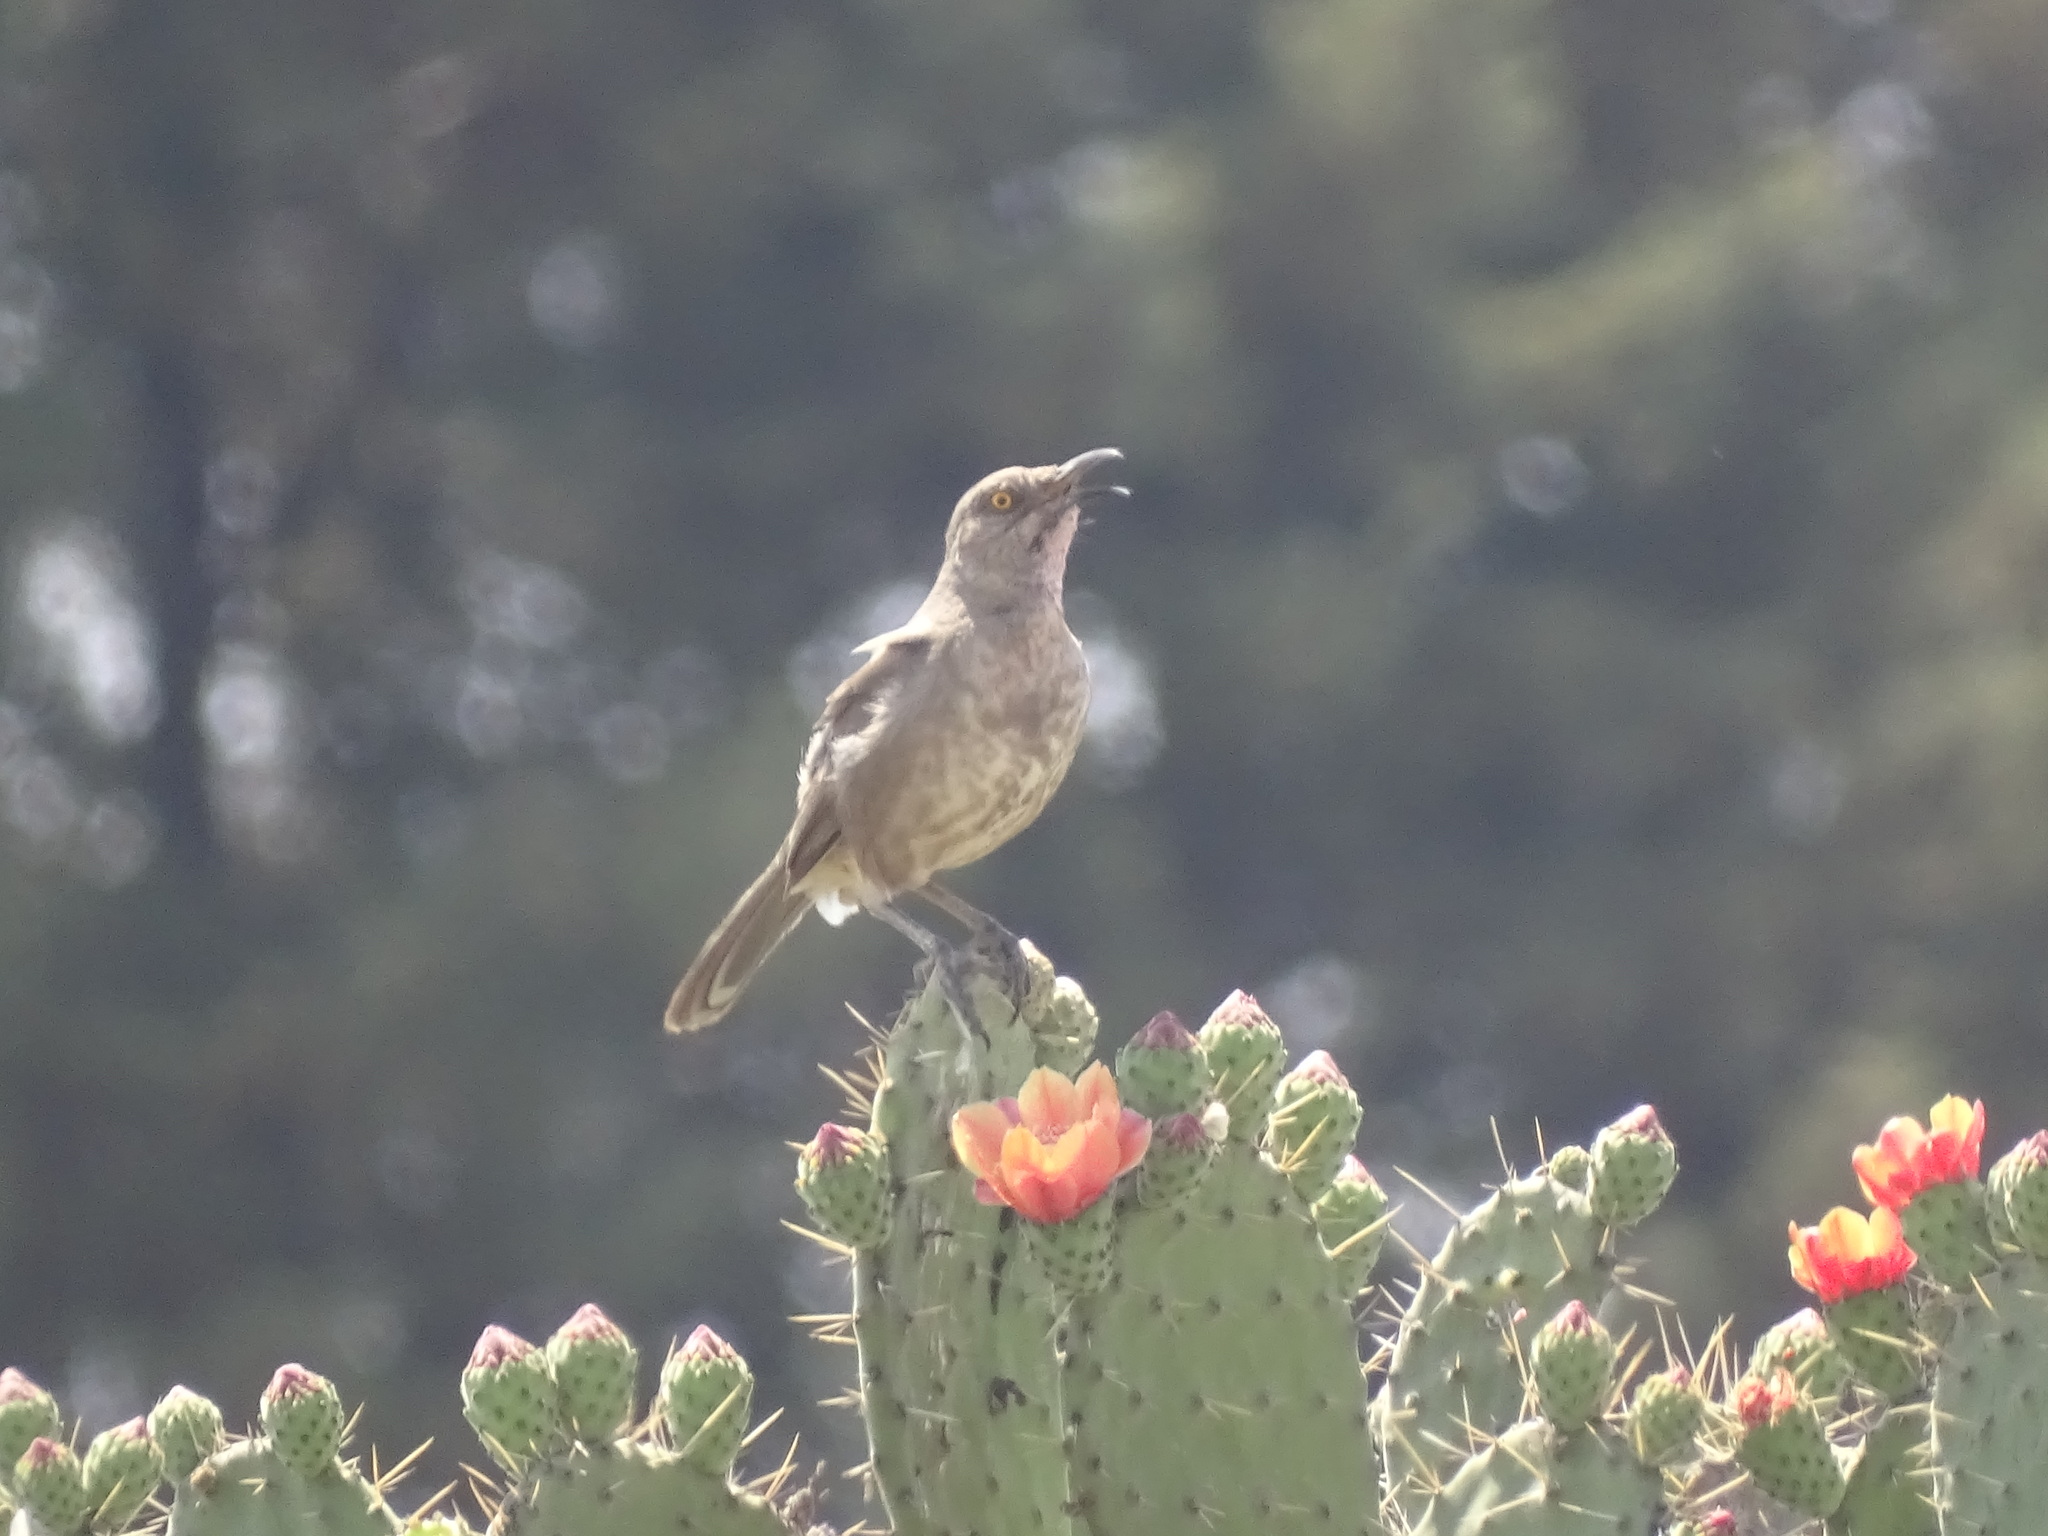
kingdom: Animalia
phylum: Chordata
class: Aves
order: Passeriformes
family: Mimidae
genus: Toxostoma
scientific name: Toxostoma curvirostre
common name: Curve-billed thrasher
